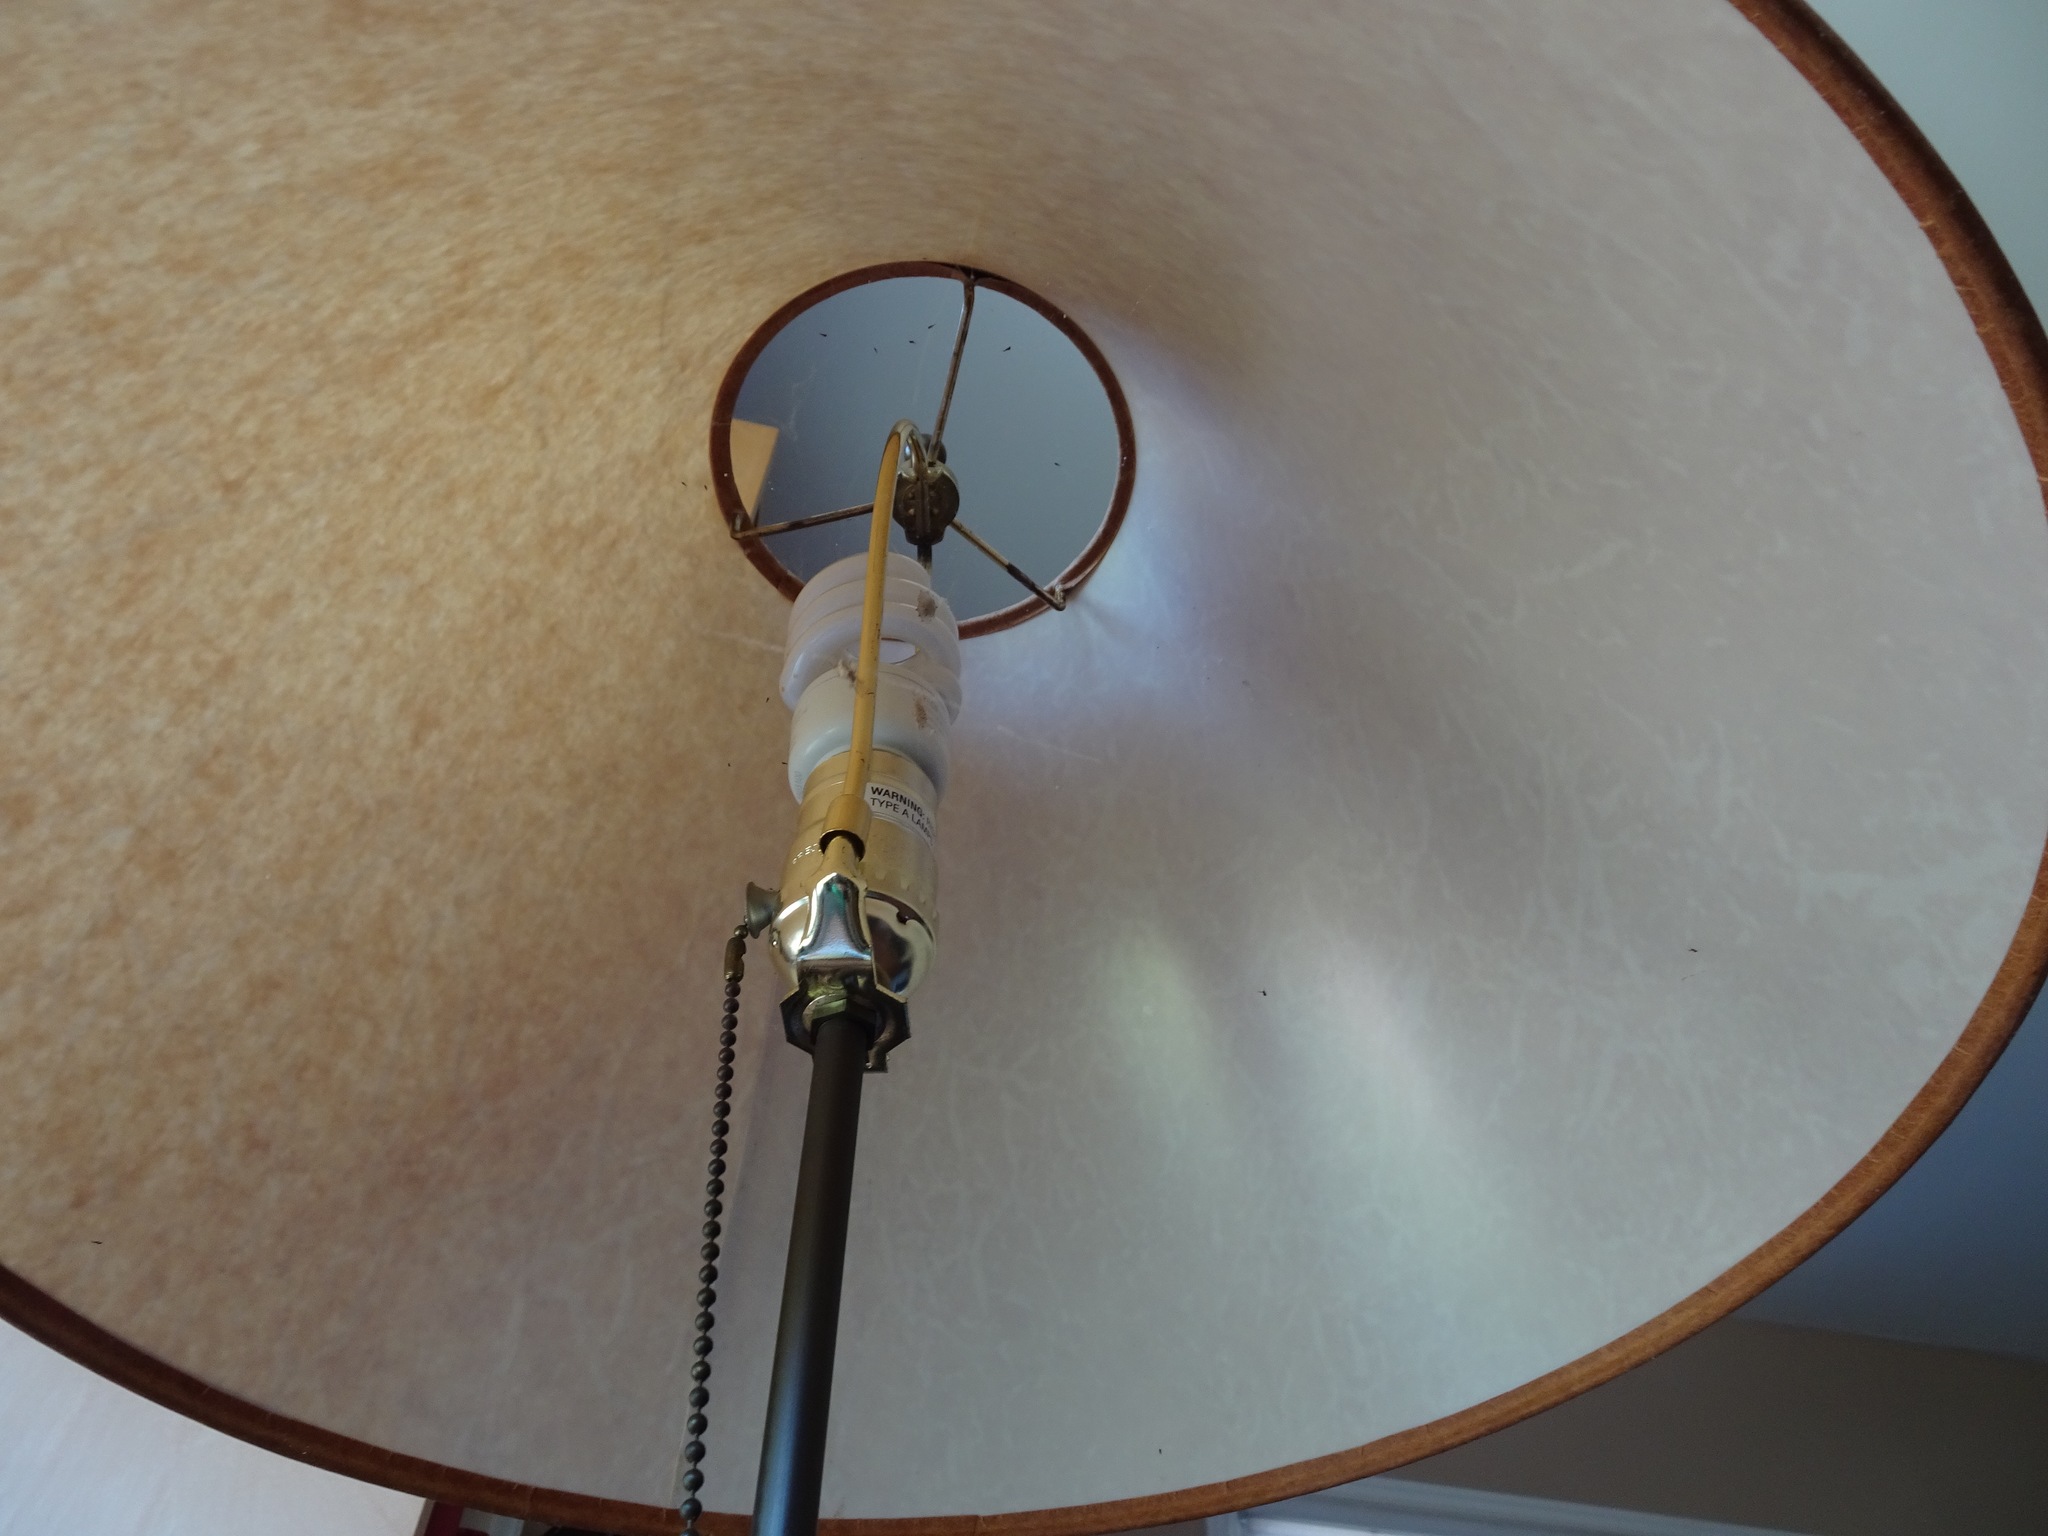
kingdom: Animalia
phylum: Arthropoda
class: Arachnida
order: Araneae
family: Uloboridae
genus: Uloborus
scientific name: Uloborus diversus
